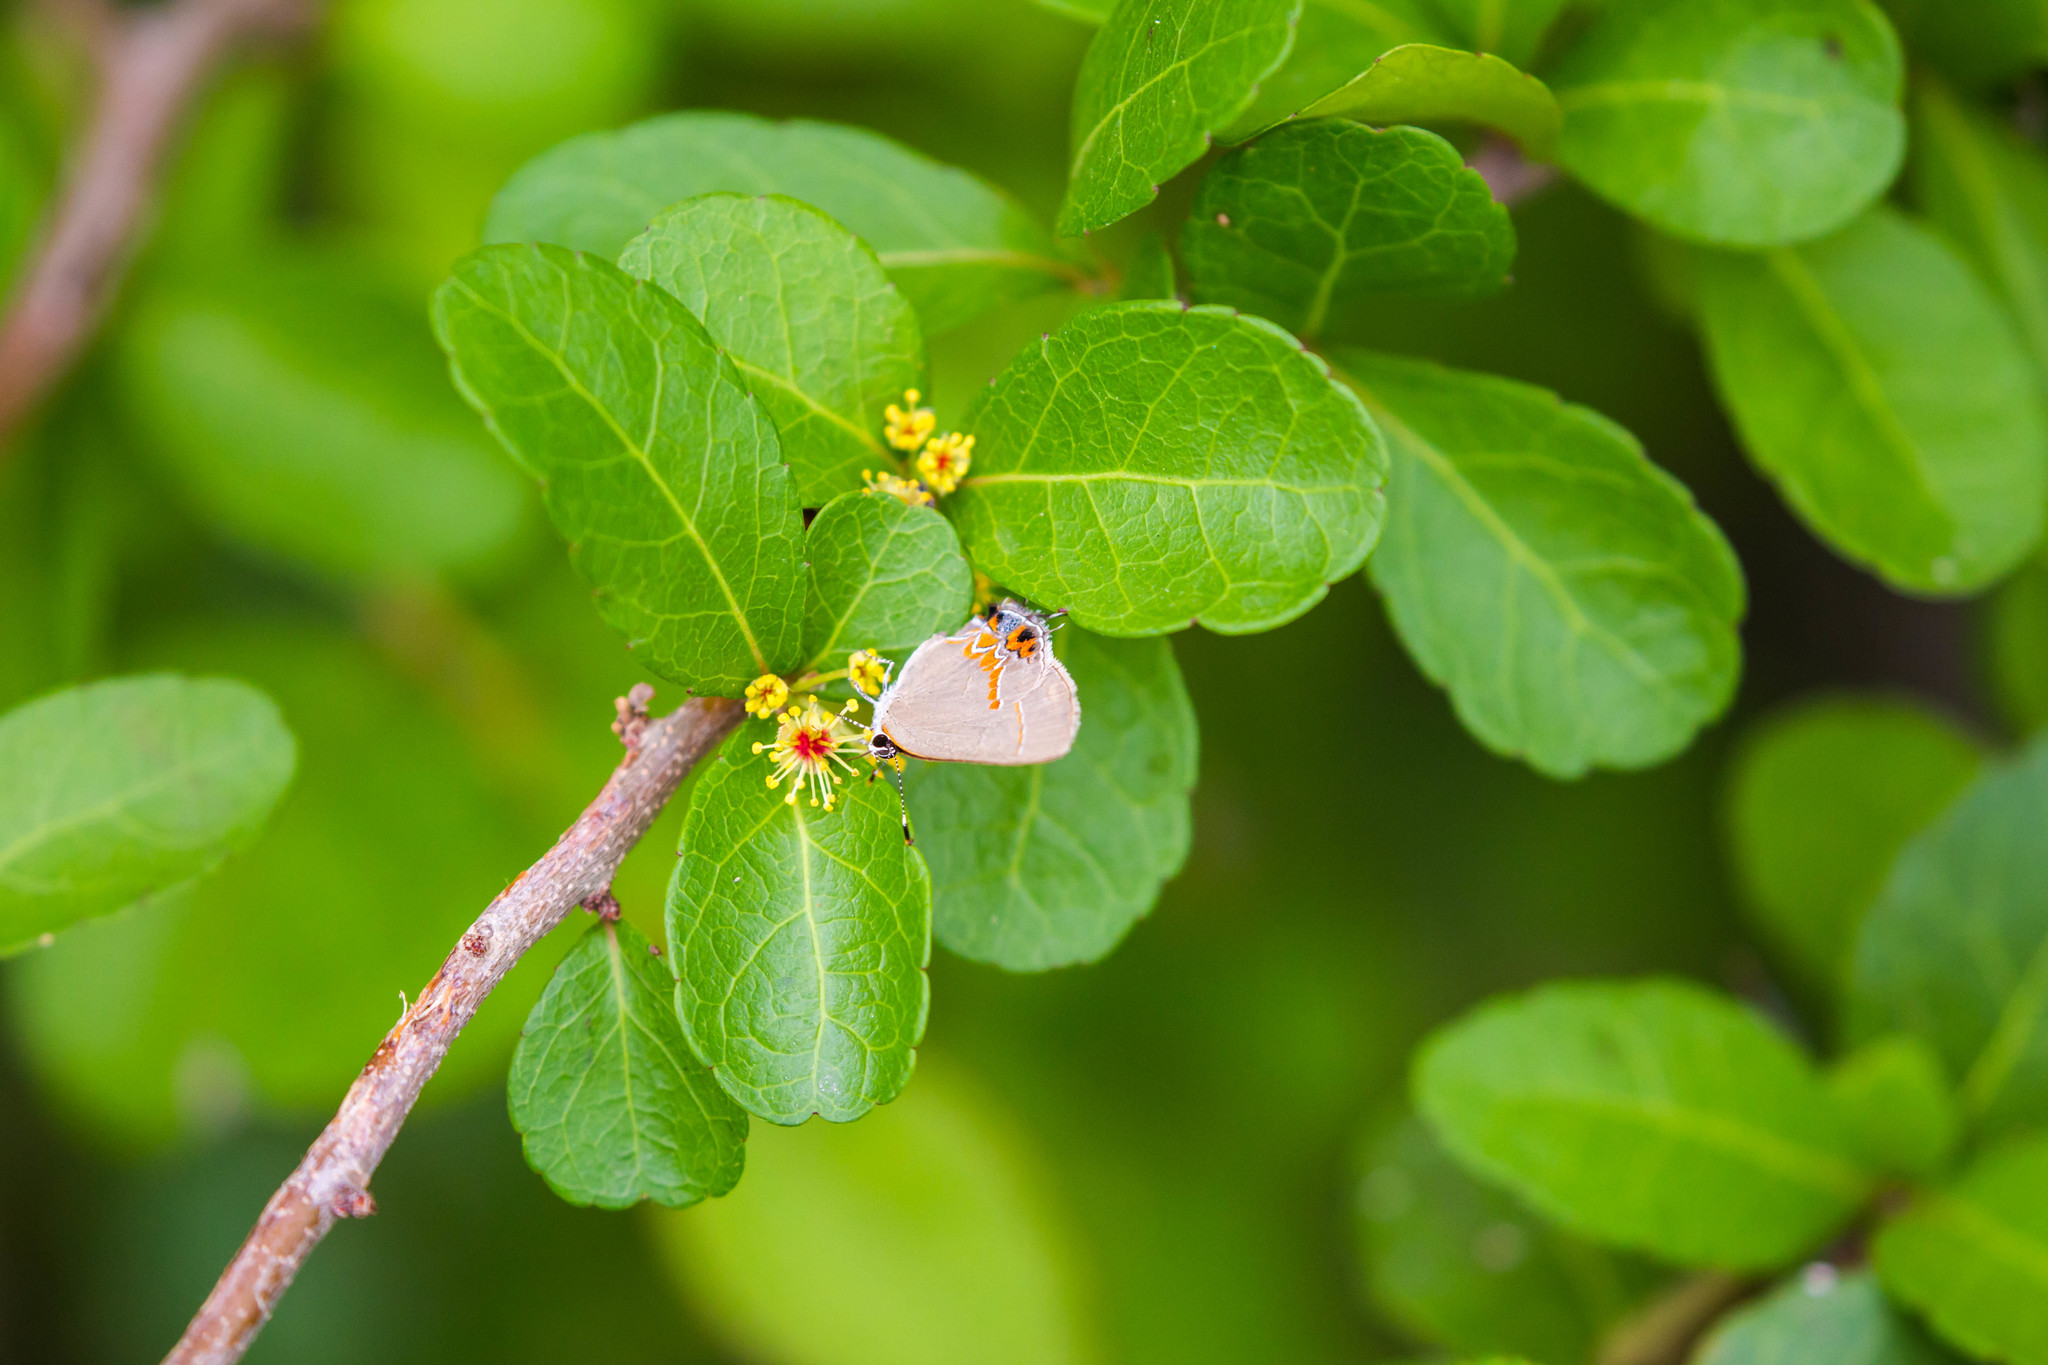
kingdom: Animalia
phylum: Arthropoda
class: Insecta
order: Lepidoptera
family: Lycaenidae
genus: Calycopis
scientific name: Calycopis isobeon
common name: Dusky-blue groundstreak
